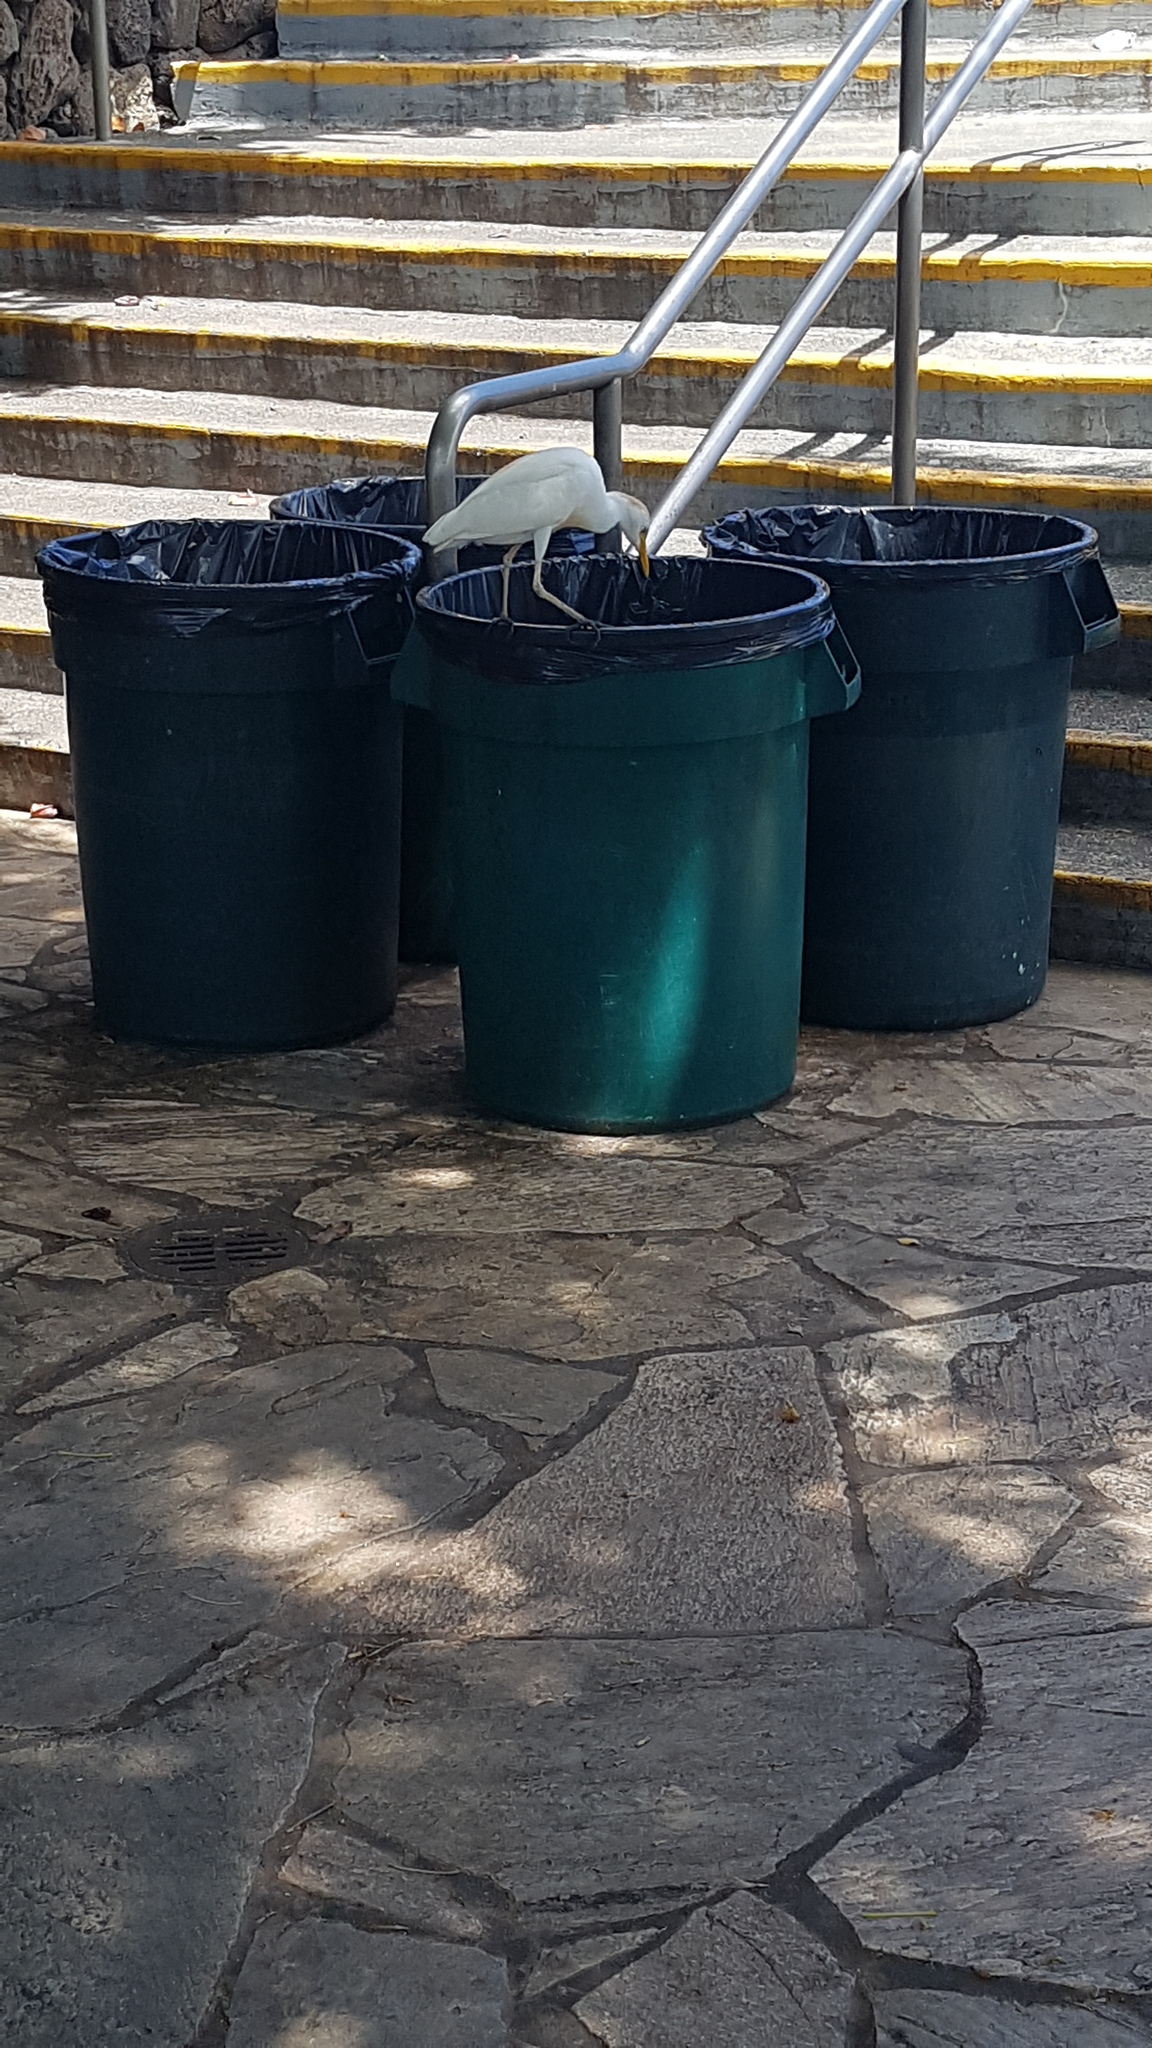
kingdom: Animalia
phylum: Chordata
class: Aves
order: Pelecaniformes
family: Ardeidae
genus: Bubulcus
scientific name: Bubulcus ibis
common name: Cattle egret
